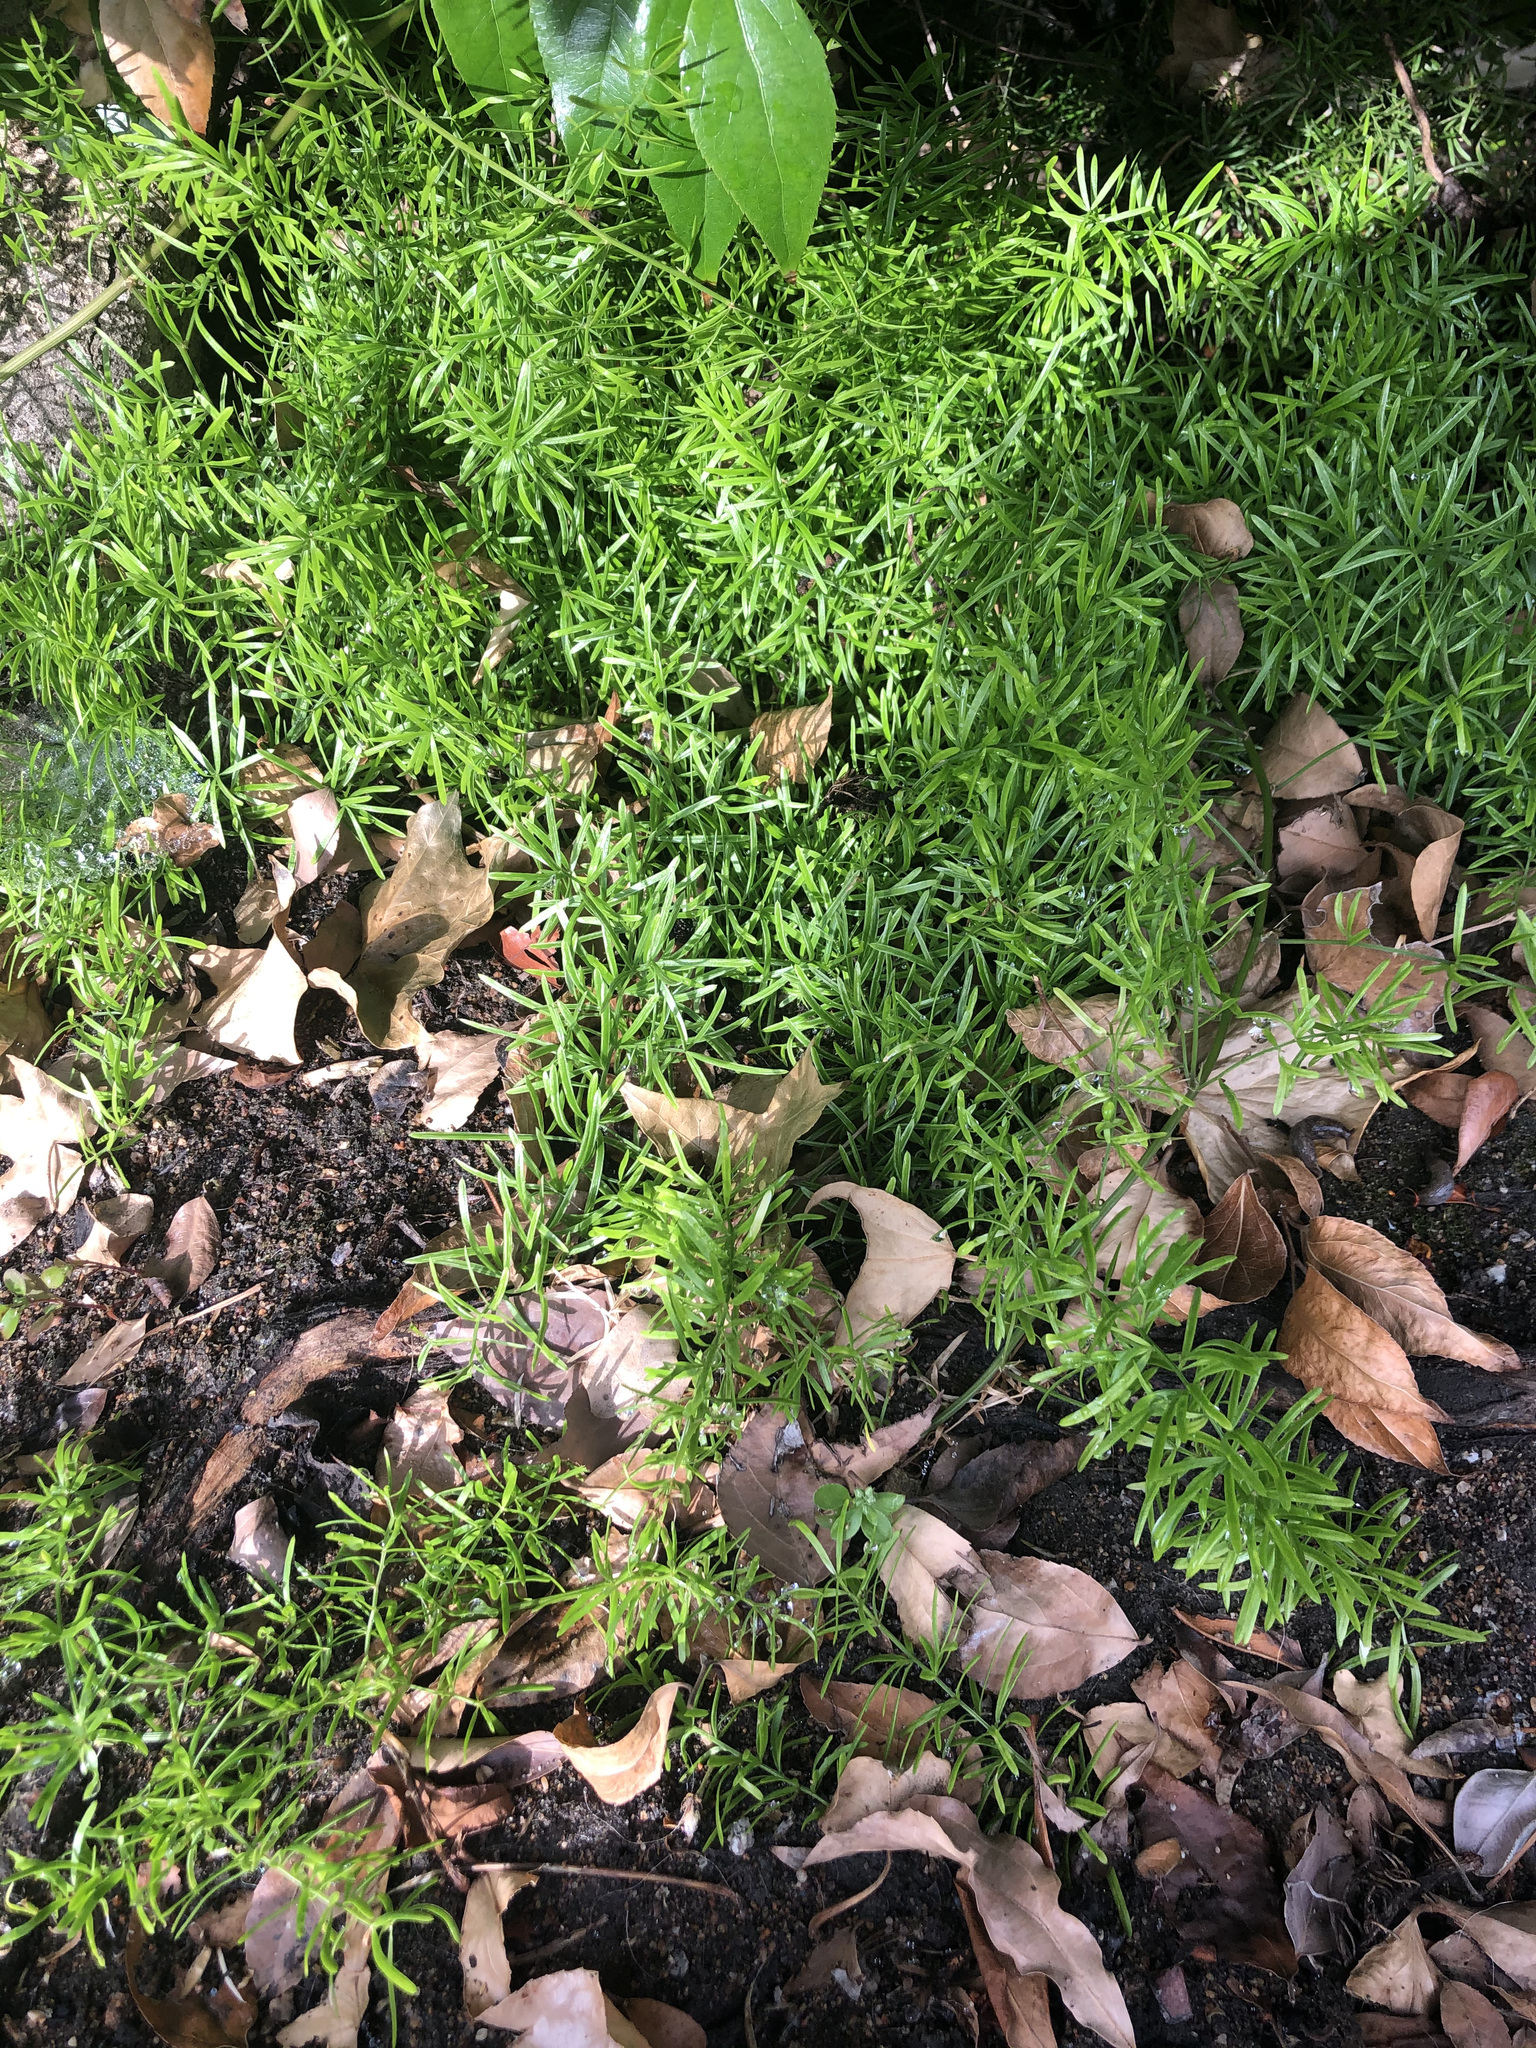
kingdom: Plantae
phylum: Tracheophyta
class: Liliopsida
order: Asparagales
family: Asparagaceae
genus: Asparagus
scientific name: Asparagus aethiopicus
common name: Sprenger's asparagus fern
